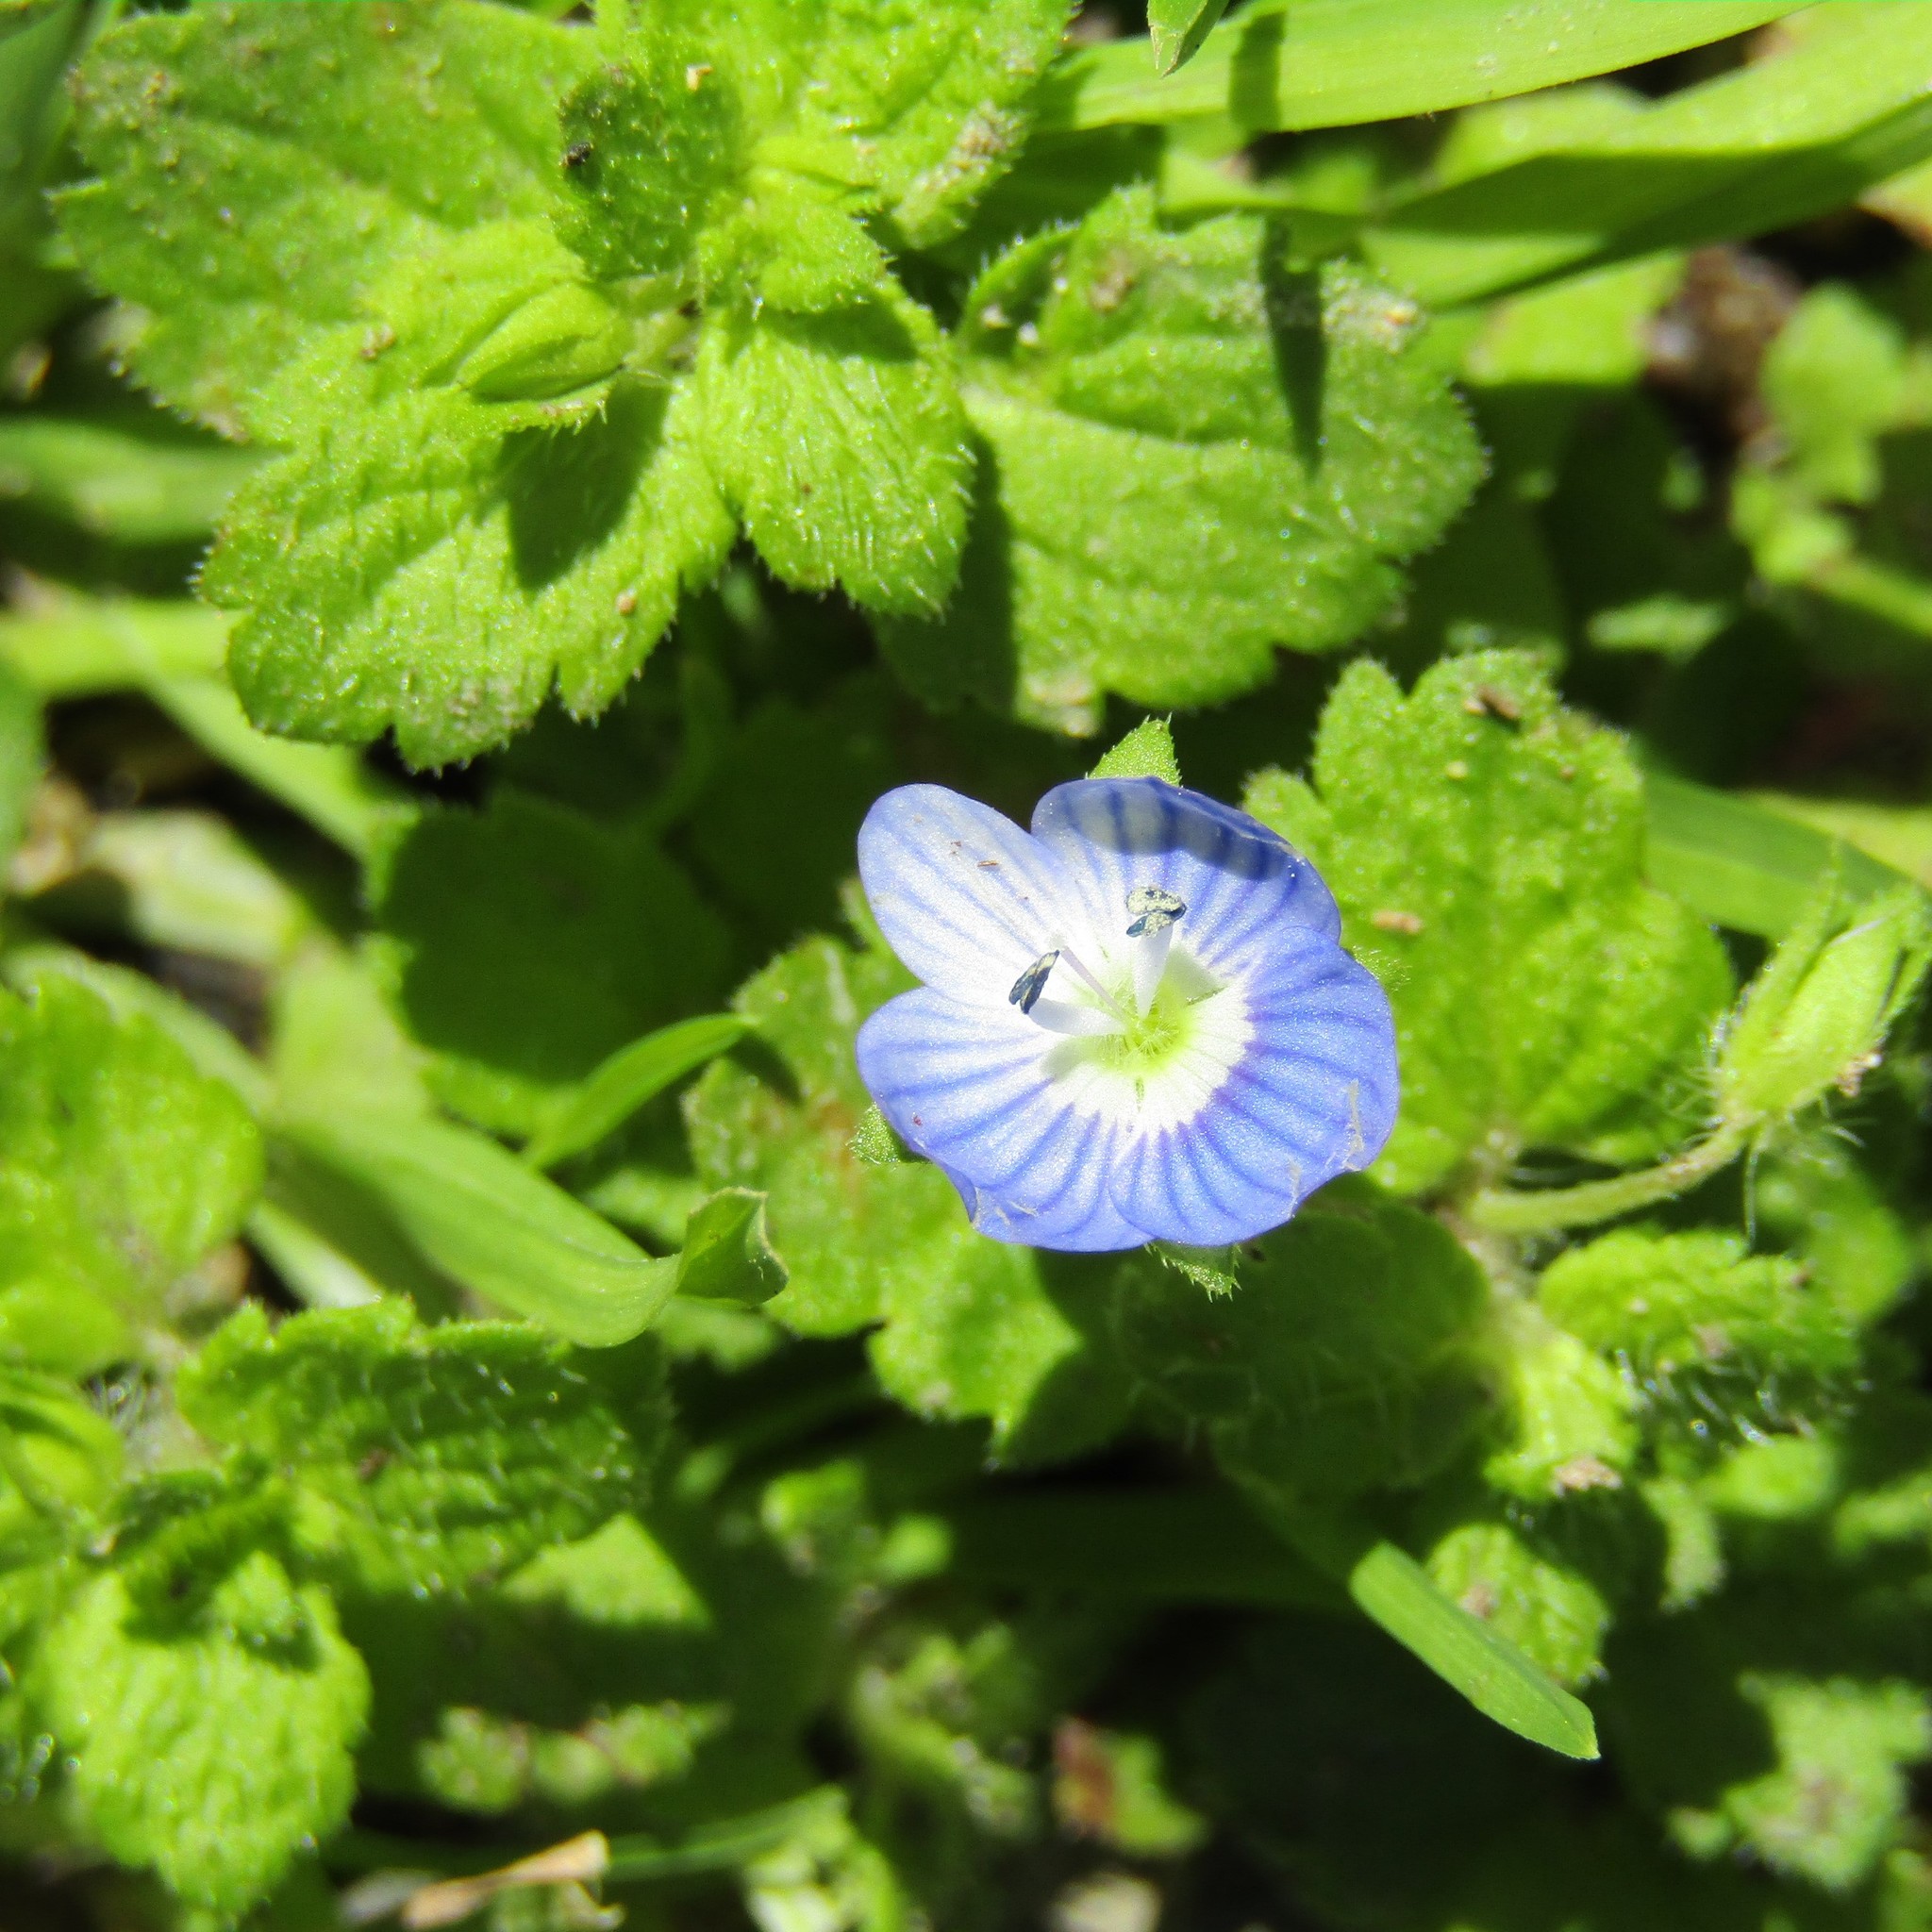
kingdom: Plantae
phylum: Tracheophyta
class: Magnoliopsida
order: Lamiales
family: Plantaginaceae
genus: Veronica
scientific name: Veronica persica
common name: Common field-speedwell
